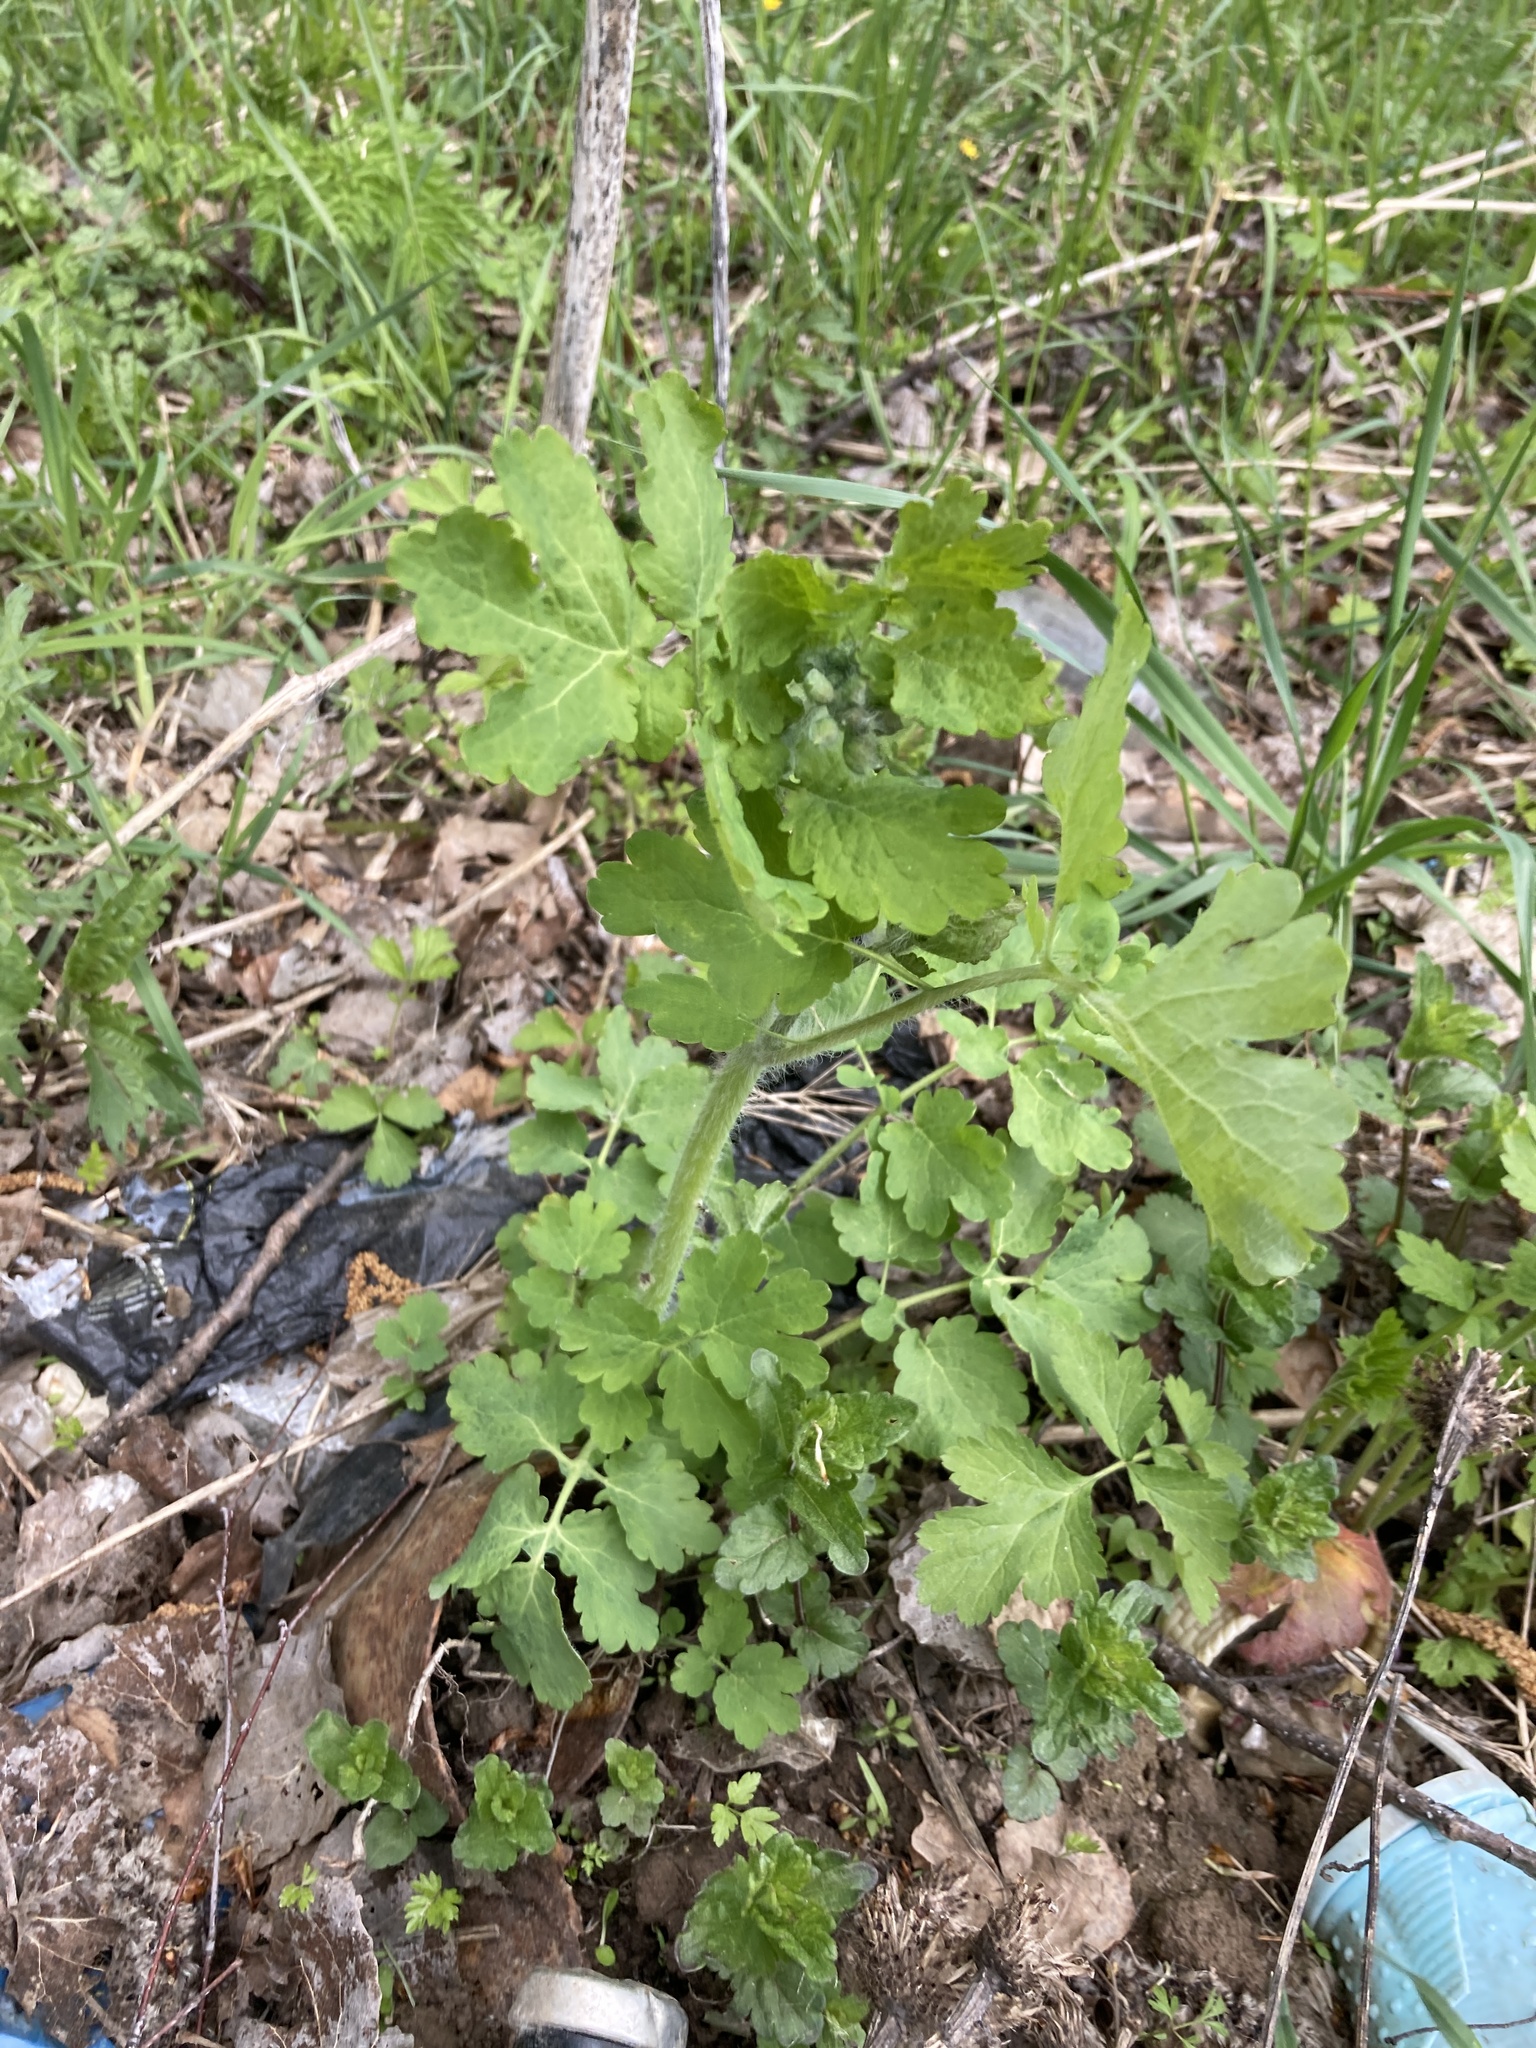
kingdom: Plantae
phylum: Tracheophyta
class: Magnoliopsida
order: Ranunculales
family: Papaveraceae
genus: Chelidonium
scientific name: Chelidonium majus
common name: Greater celandine
